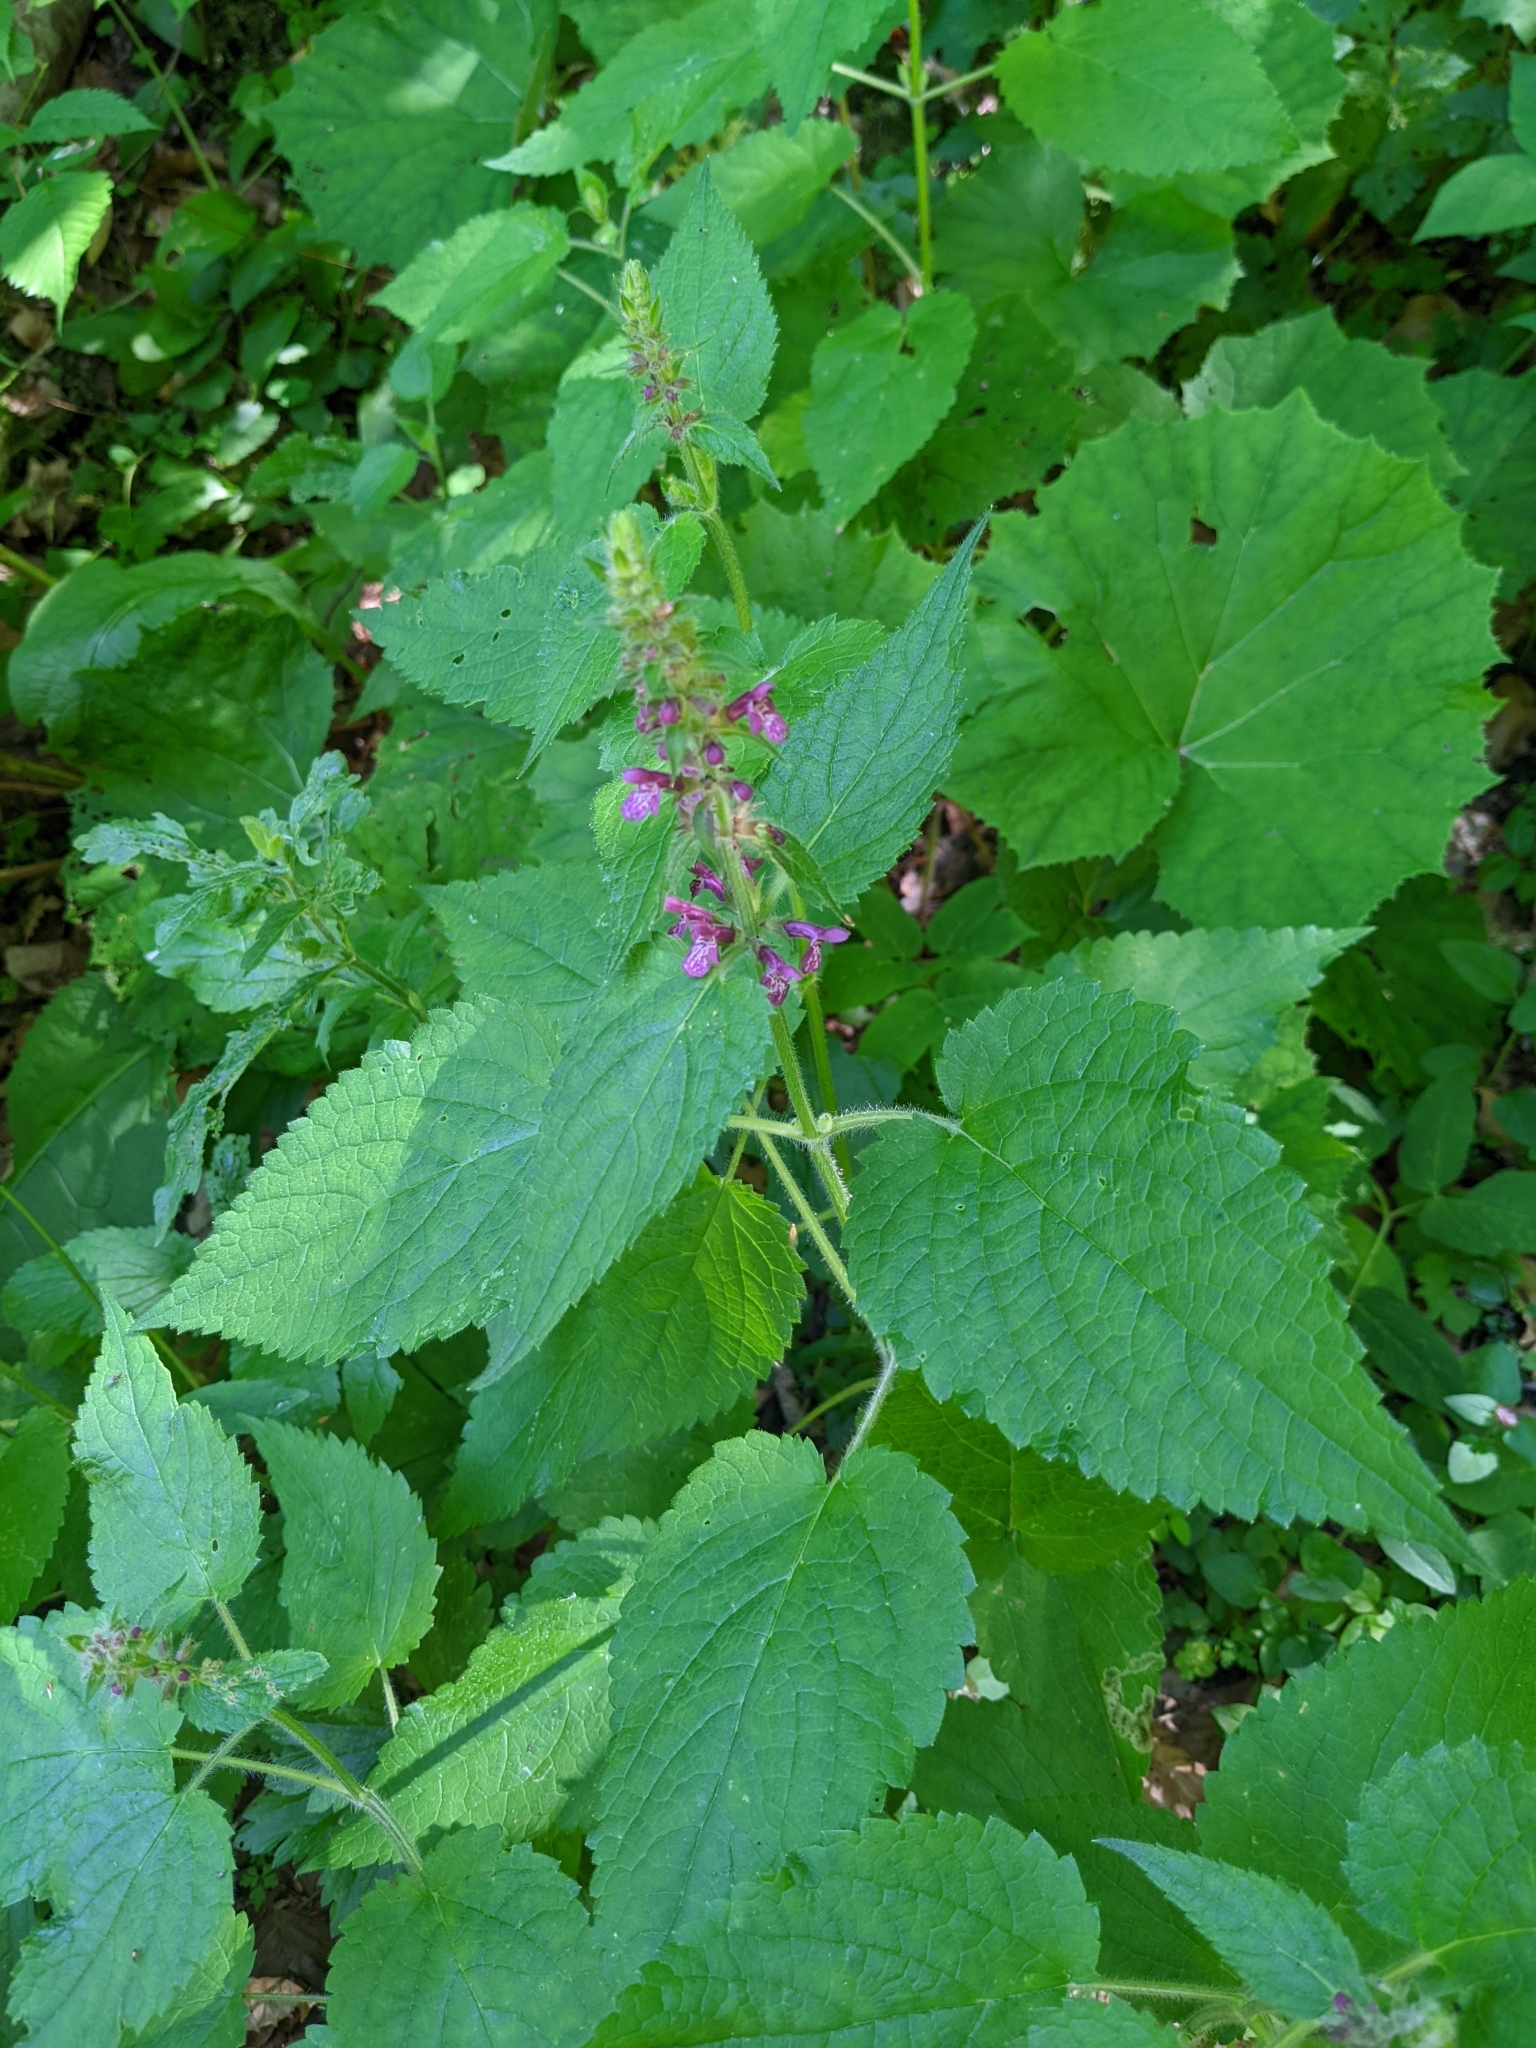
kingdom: Plantae
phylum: Tracheophyta
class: Magnoliopsida
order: Lamiales
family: Lamiaceae
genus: Stachys
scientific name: Stachys sylvatica
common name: Hedge woundwort
